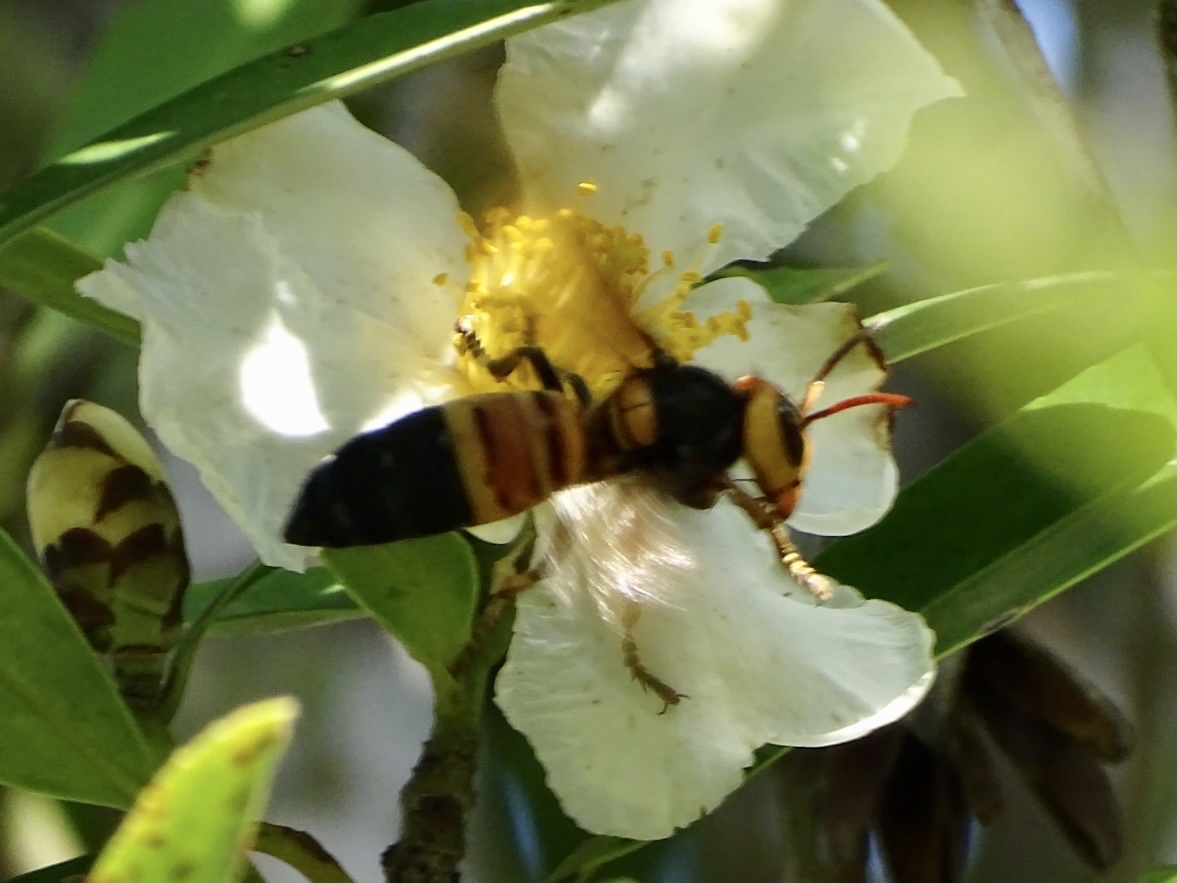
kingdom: Animalia
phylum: Arthropoda
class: Insecta
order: Hymenoptera
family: Vespidae
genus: Vespa
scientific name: Vespa soror
